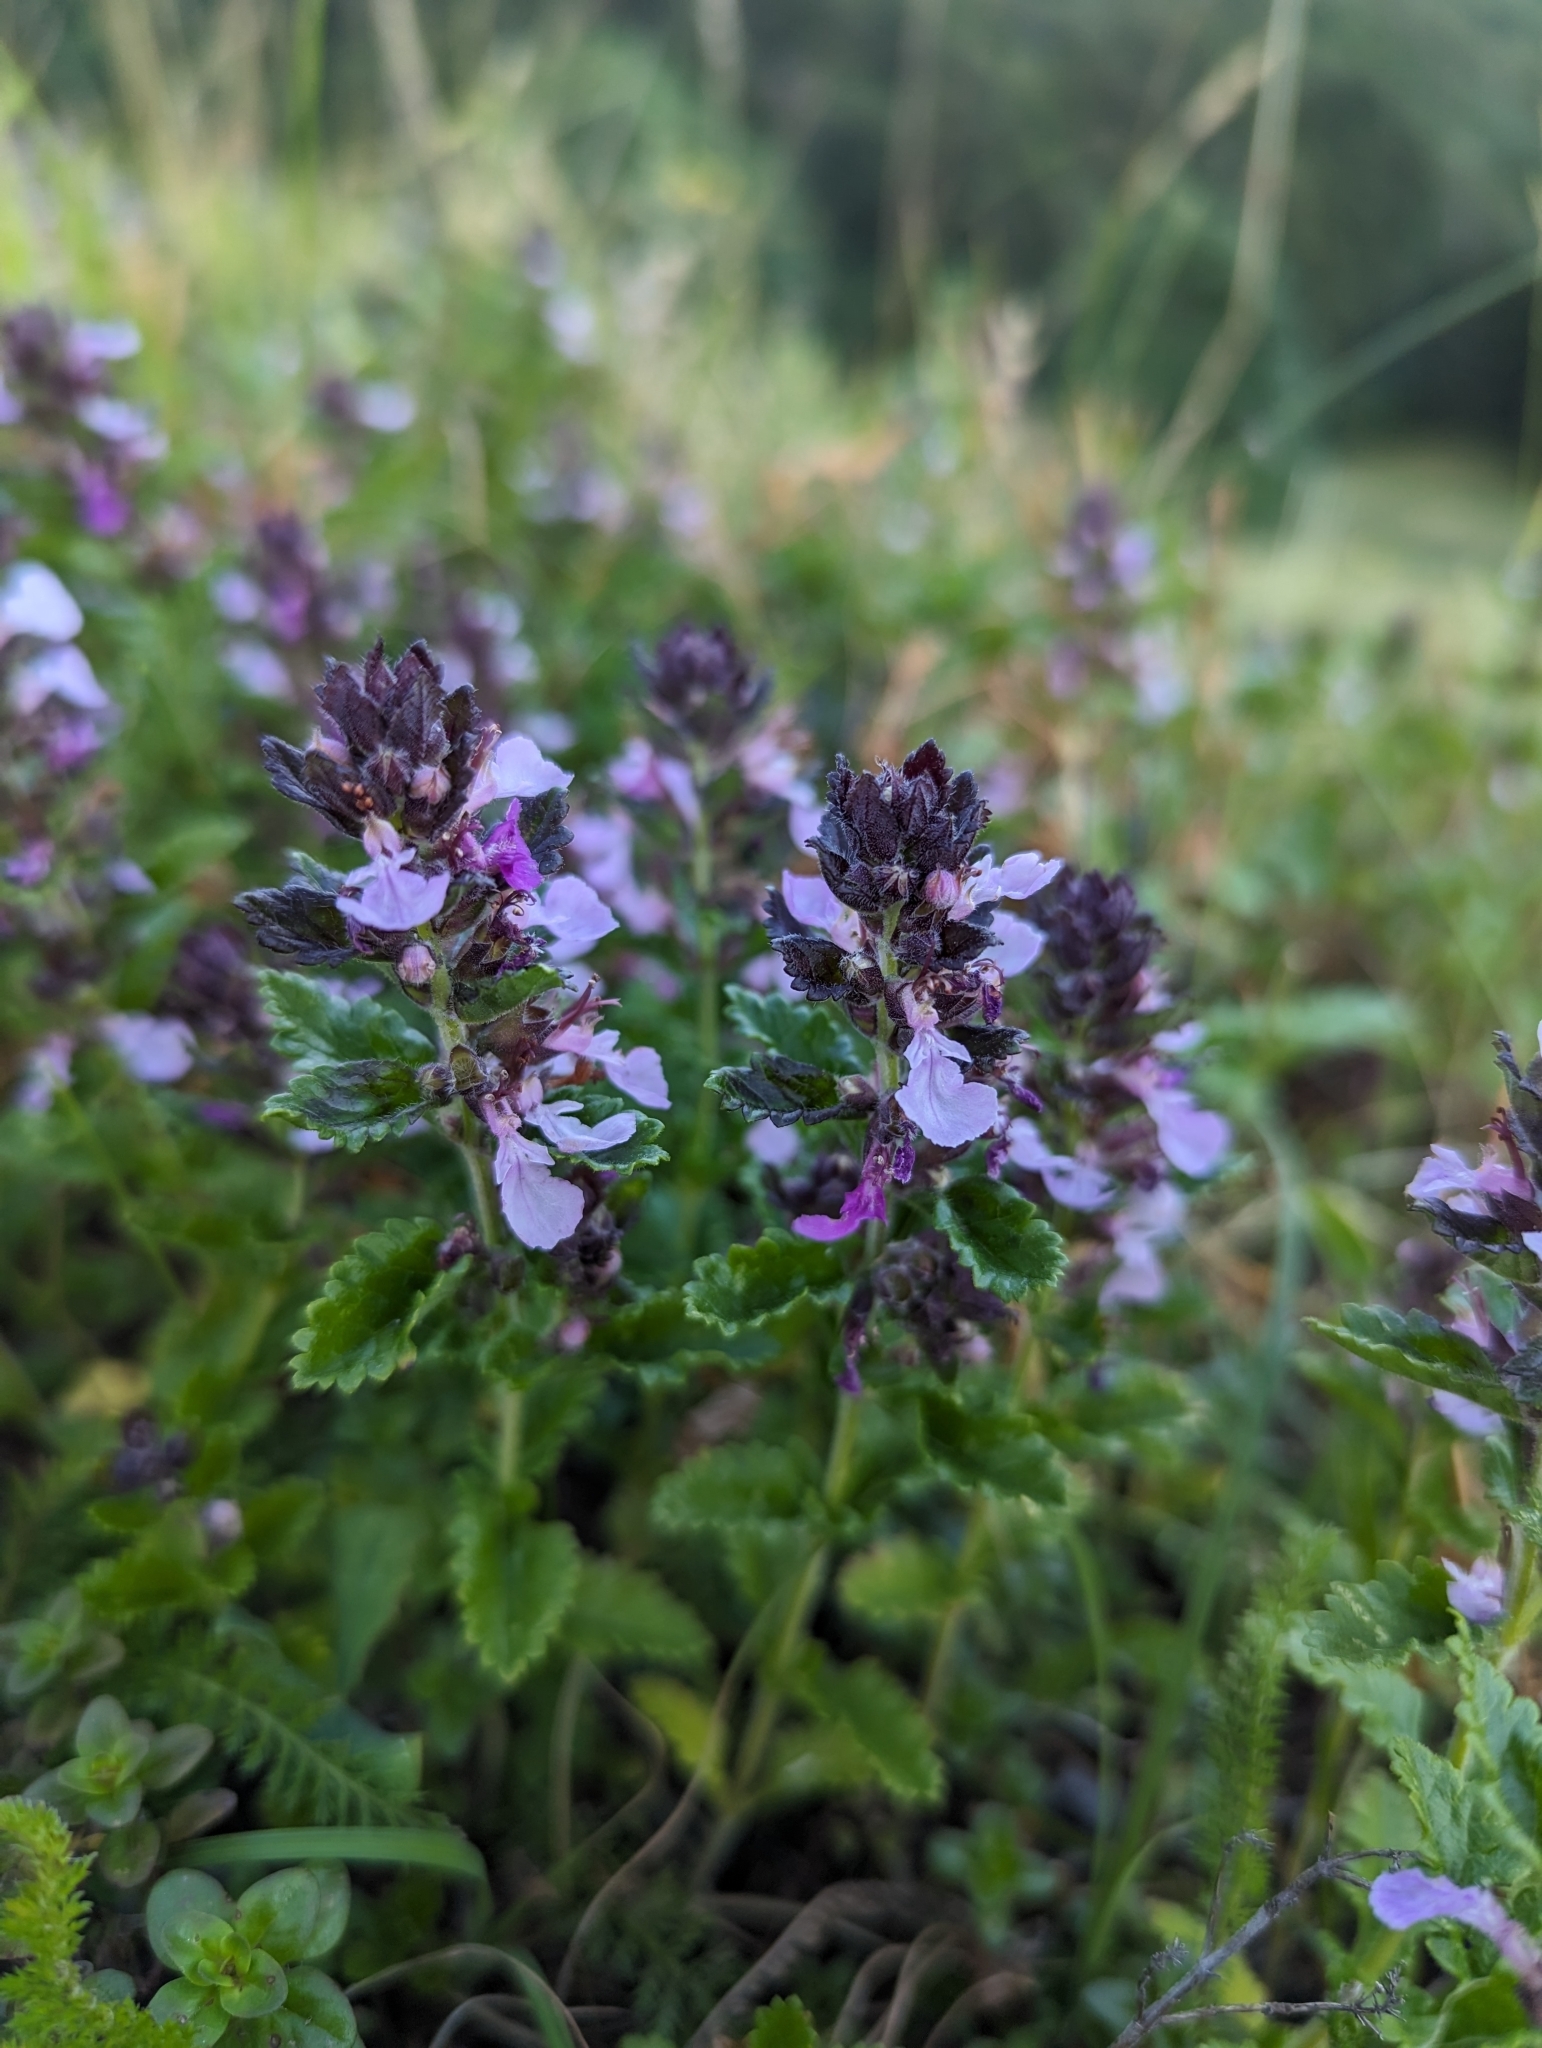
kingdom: Plantae
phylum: Tracheophyta
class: Magnoliopsida
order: Lamiales
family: Lamiaceae
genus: Teucrium
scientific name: Teucrium chamaedrys
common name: Wall germander
